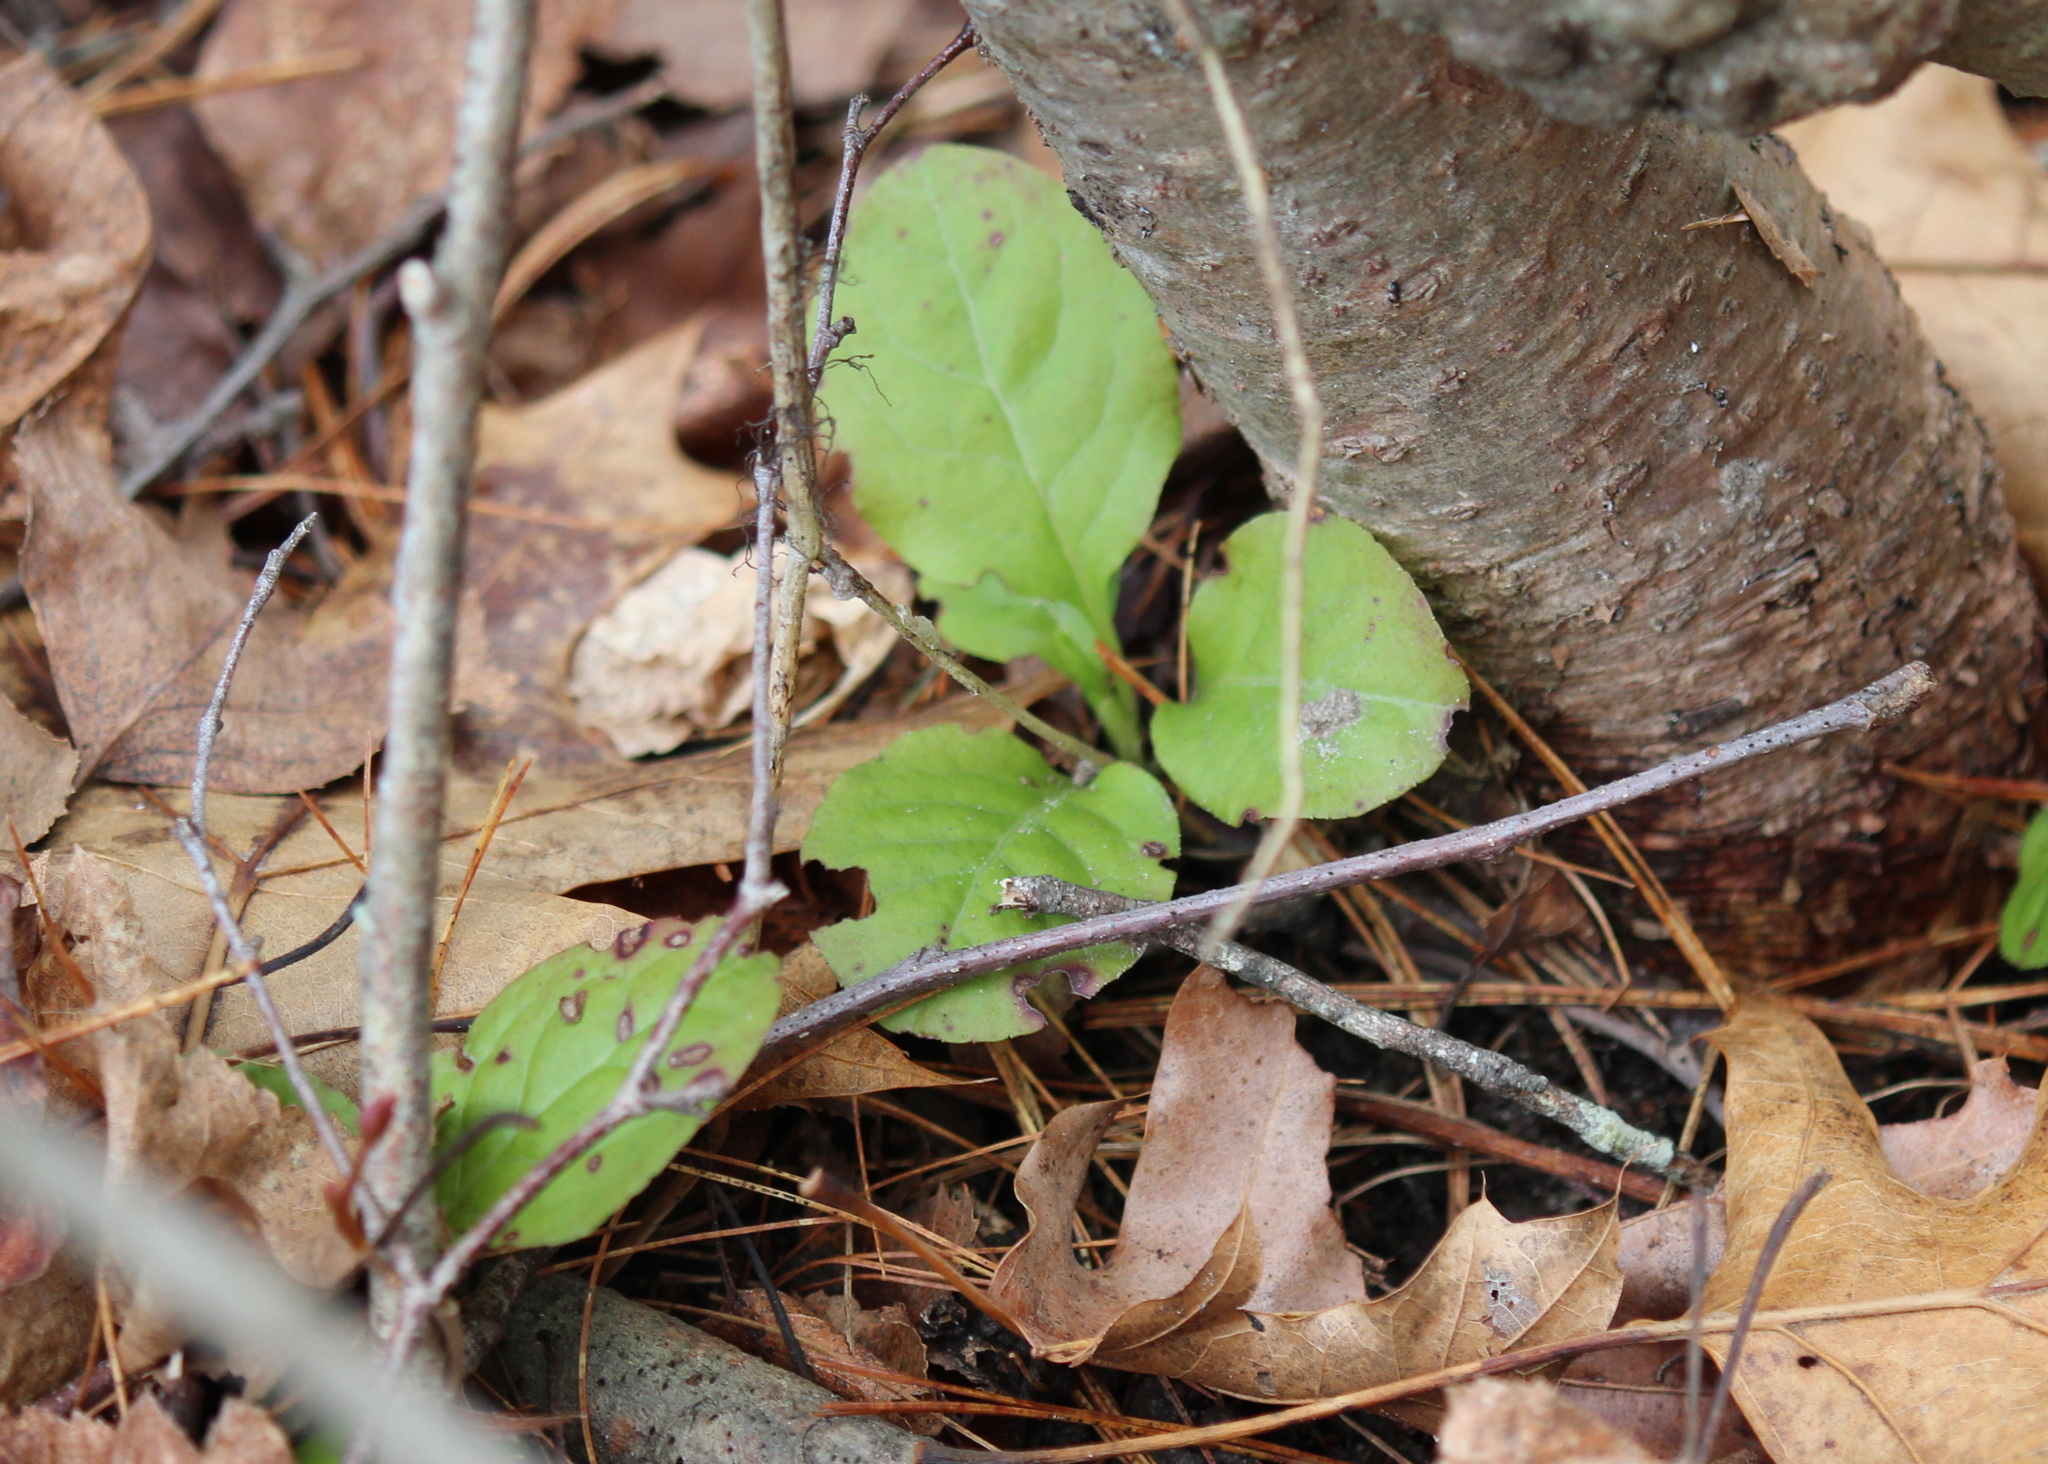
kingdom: Plantae
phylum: Tracheophyta
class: Magnoliopsida
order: Ericales
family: Ericaceae
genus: Pyrola
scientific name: Pyrola elliptica
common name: Shinleaf
